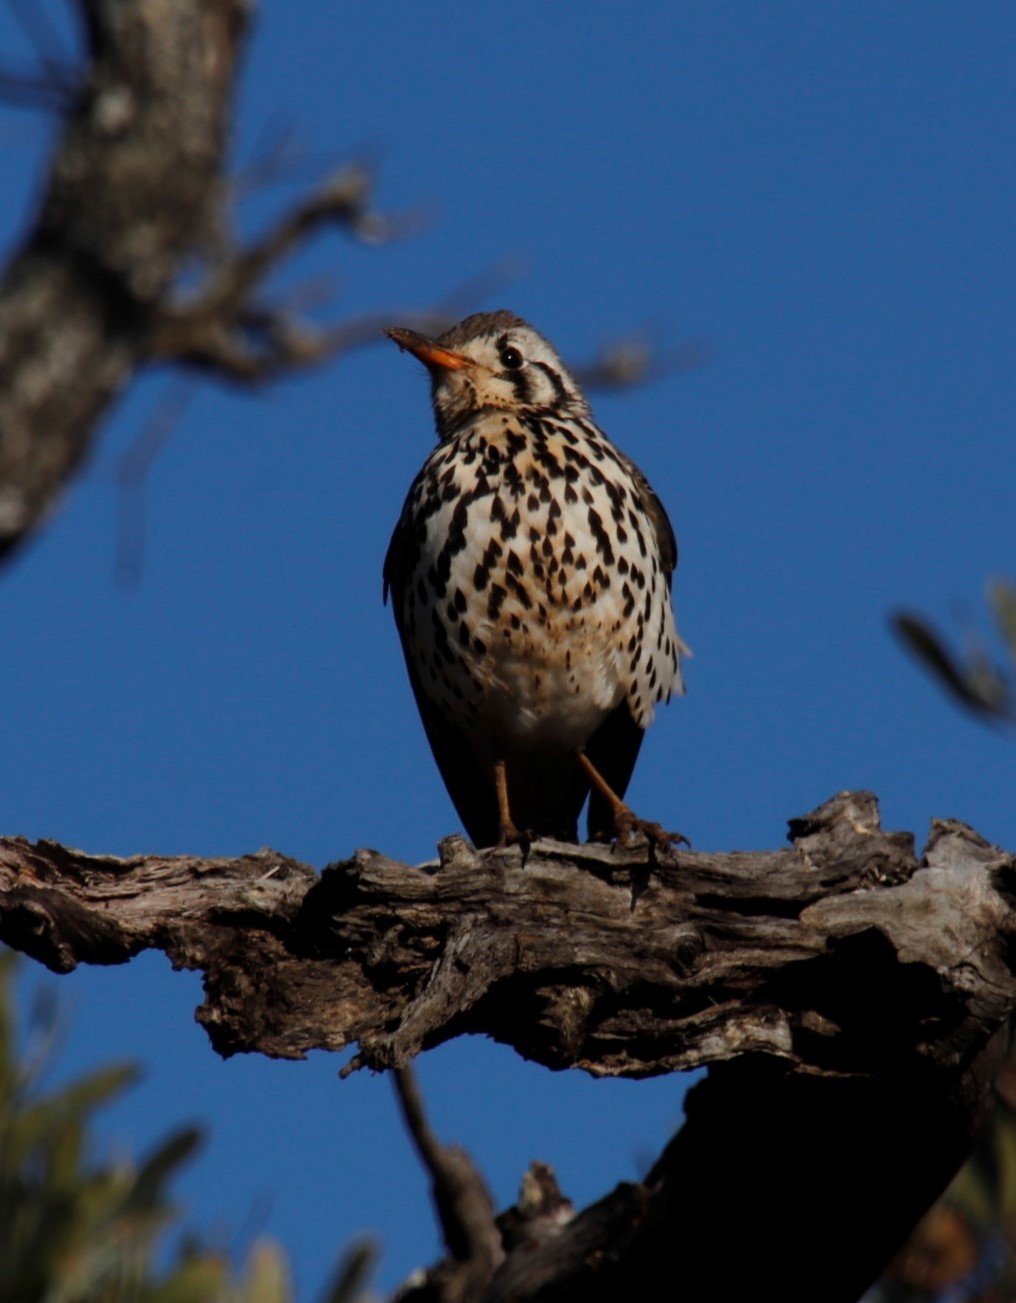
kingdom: Animalia
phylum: Chordata
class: Aves
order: Passeriformes
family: Turdidae
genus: Psophocichla
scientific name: Psophocichla litsitsirupa
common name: Groundscraper thrush
